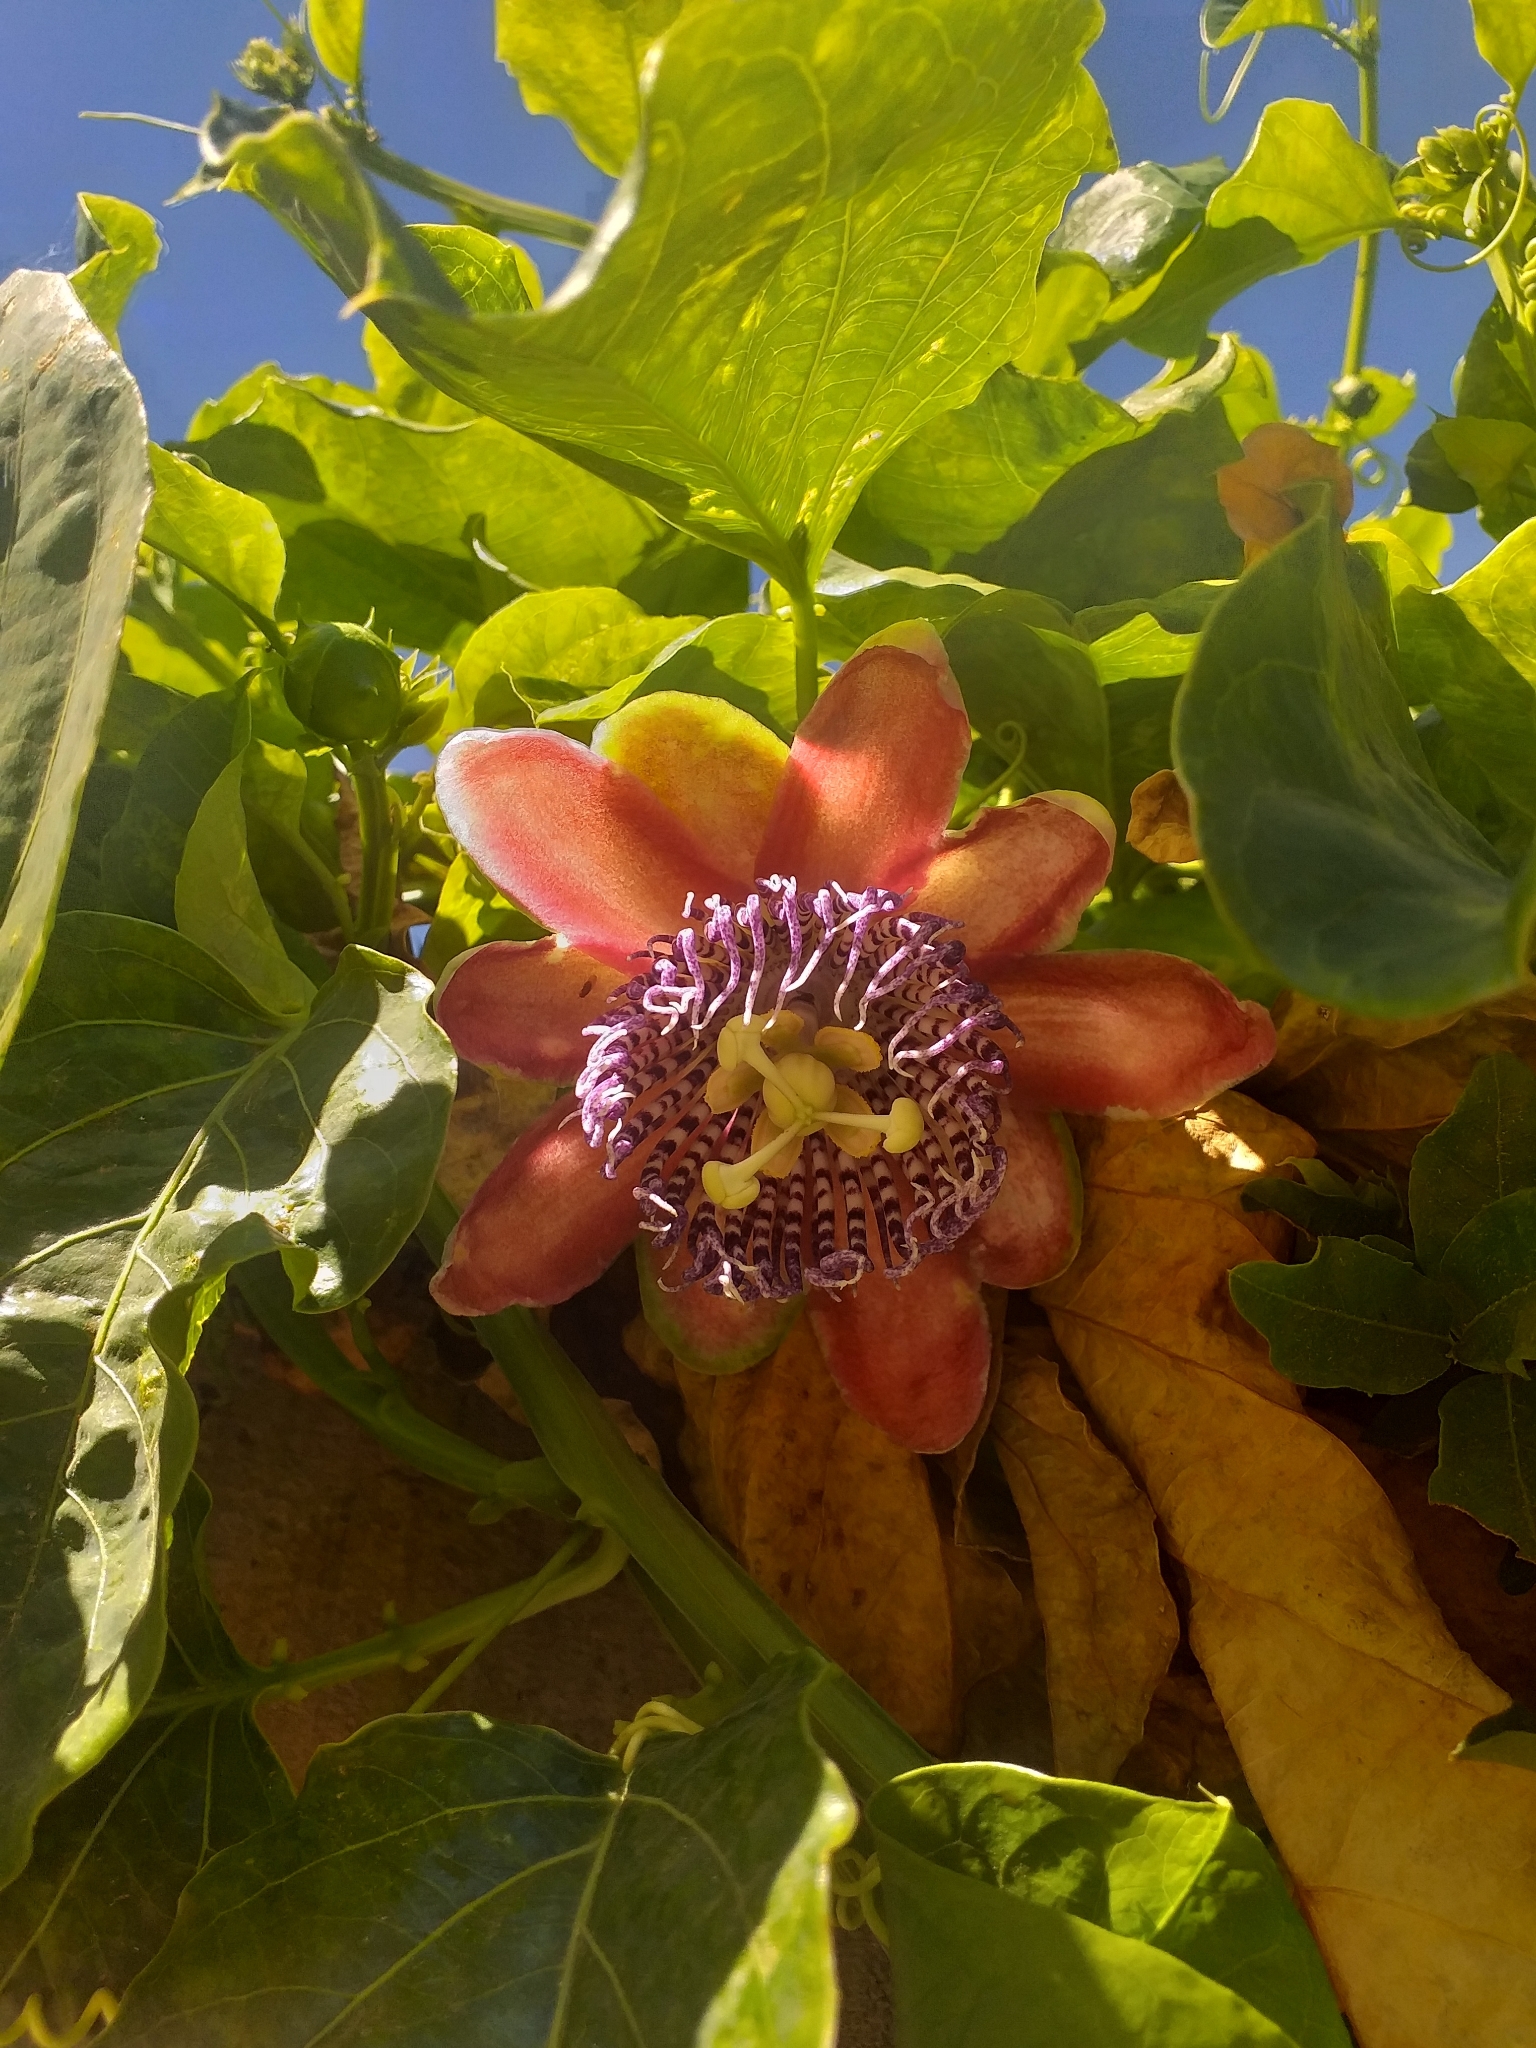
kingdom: Plantae
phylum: Tracheophyta
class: Magnoliopsida
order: Malpighiales
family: Passifloraceae
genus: Passiflora
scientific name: Passiflora alata
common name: Wing-stemmed passion flower
